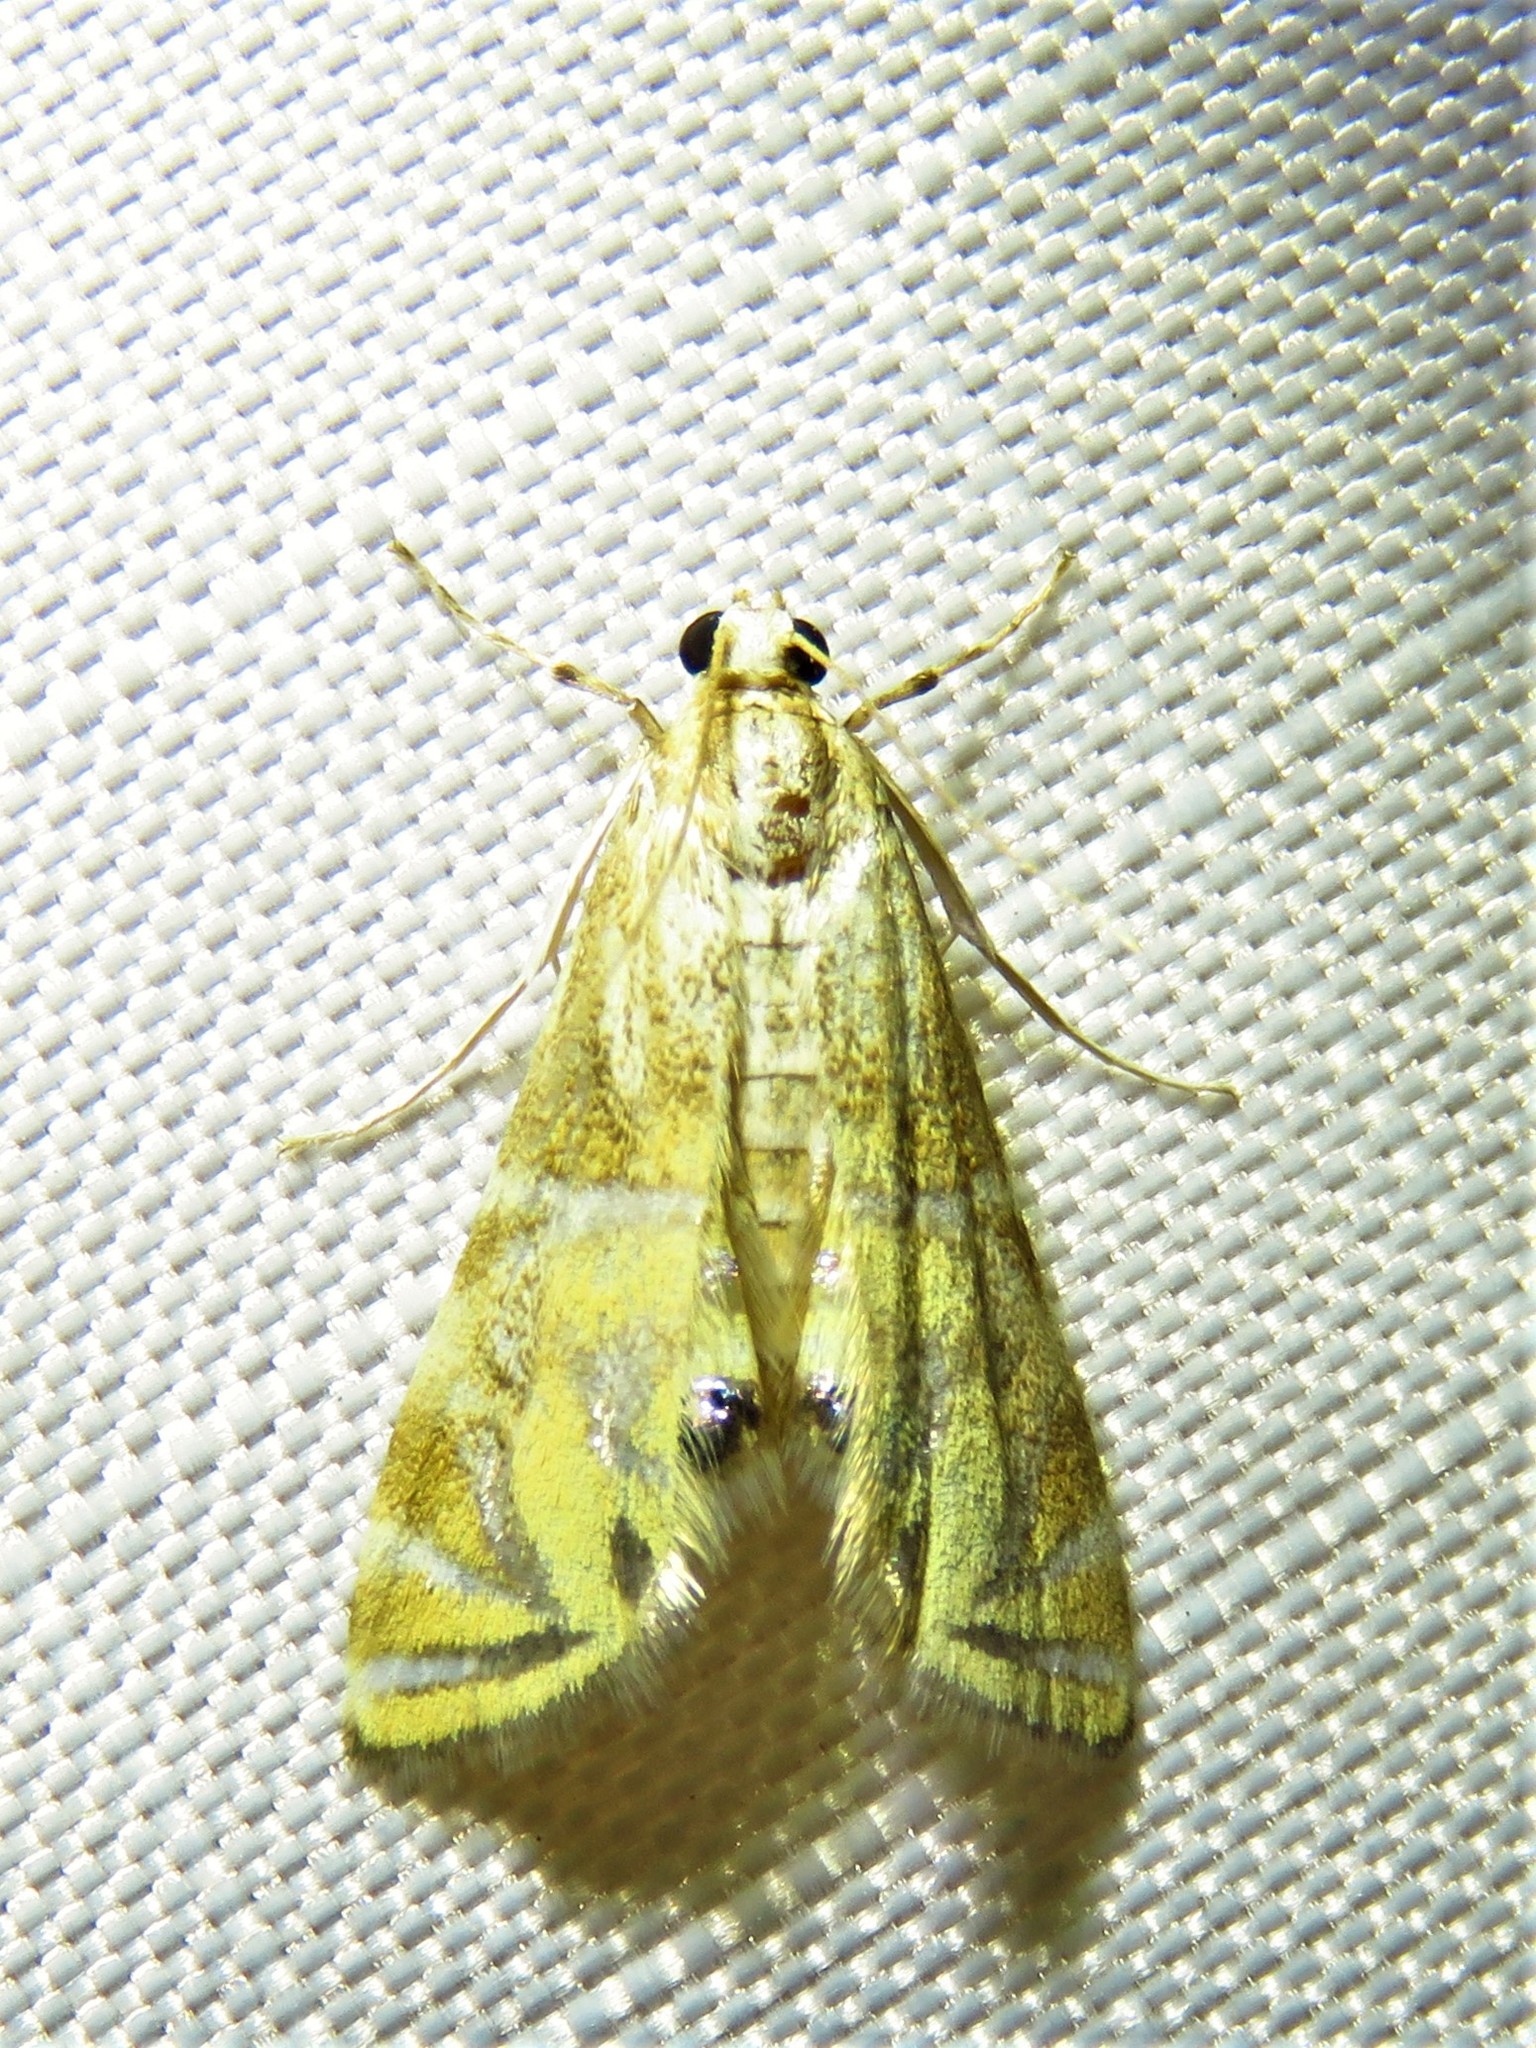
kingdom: Animalia
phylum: Arthropoda
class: Insecta
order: Lepidoptera
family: Crambidae
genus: Petrophila
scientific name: Petrophila daemonalis
